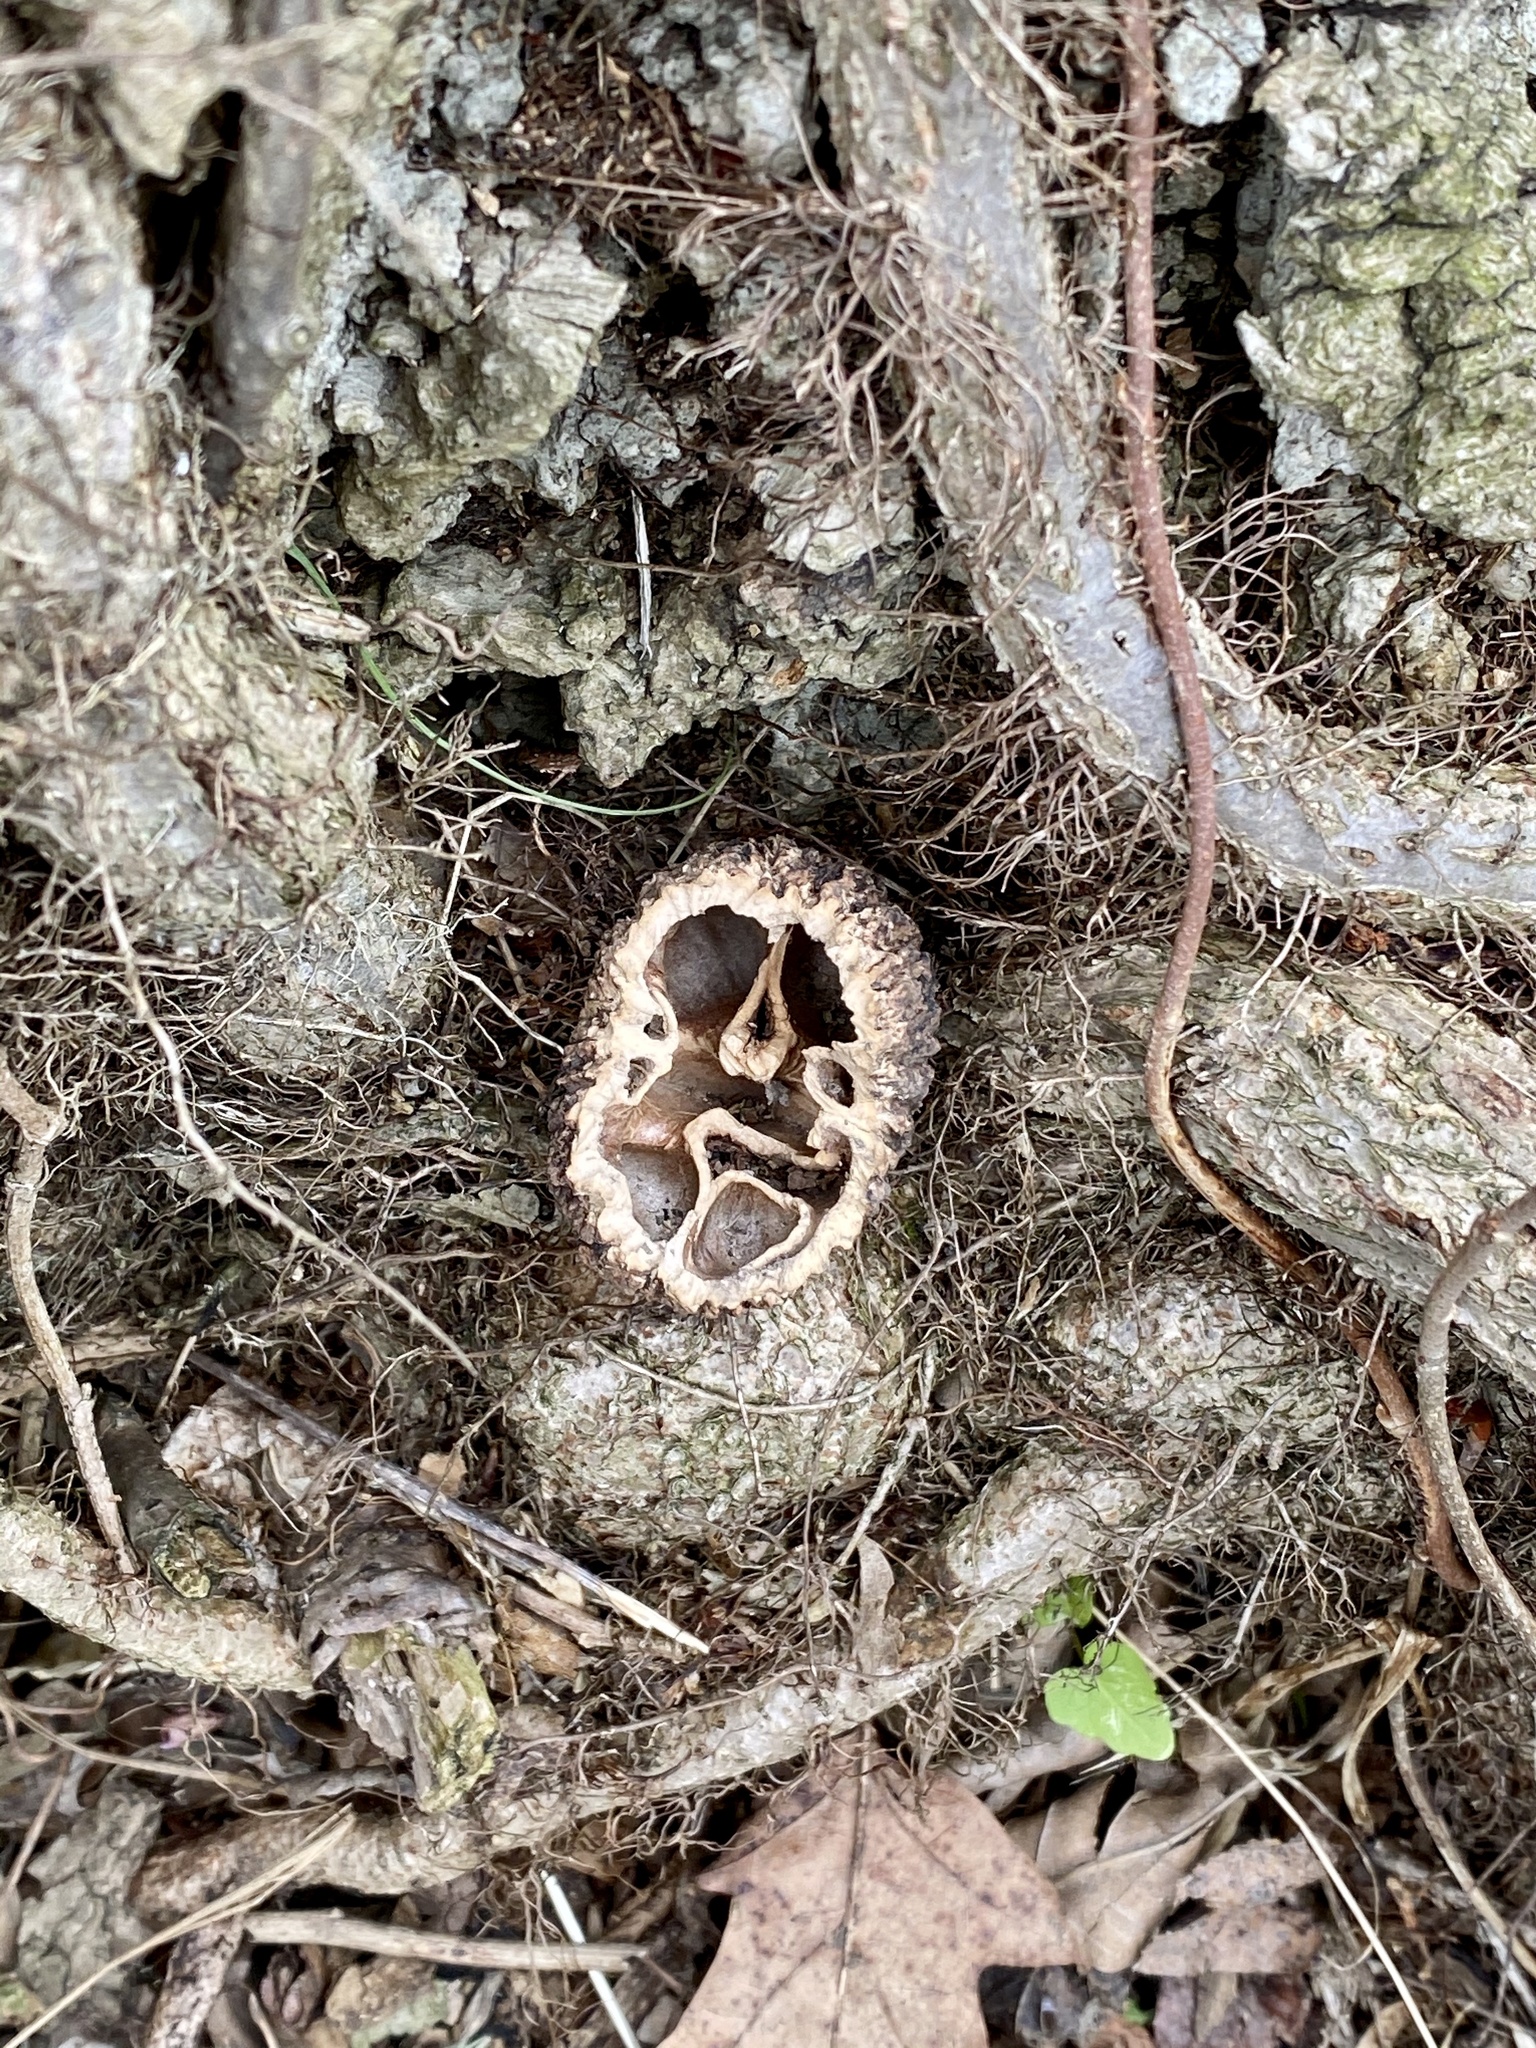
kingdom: Plantae
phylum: Tracheophyta
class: Magnoliopsida
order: Fagales
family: Juglandaceae
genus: Juglans
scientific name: Juglans nigra
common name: Black walnut
